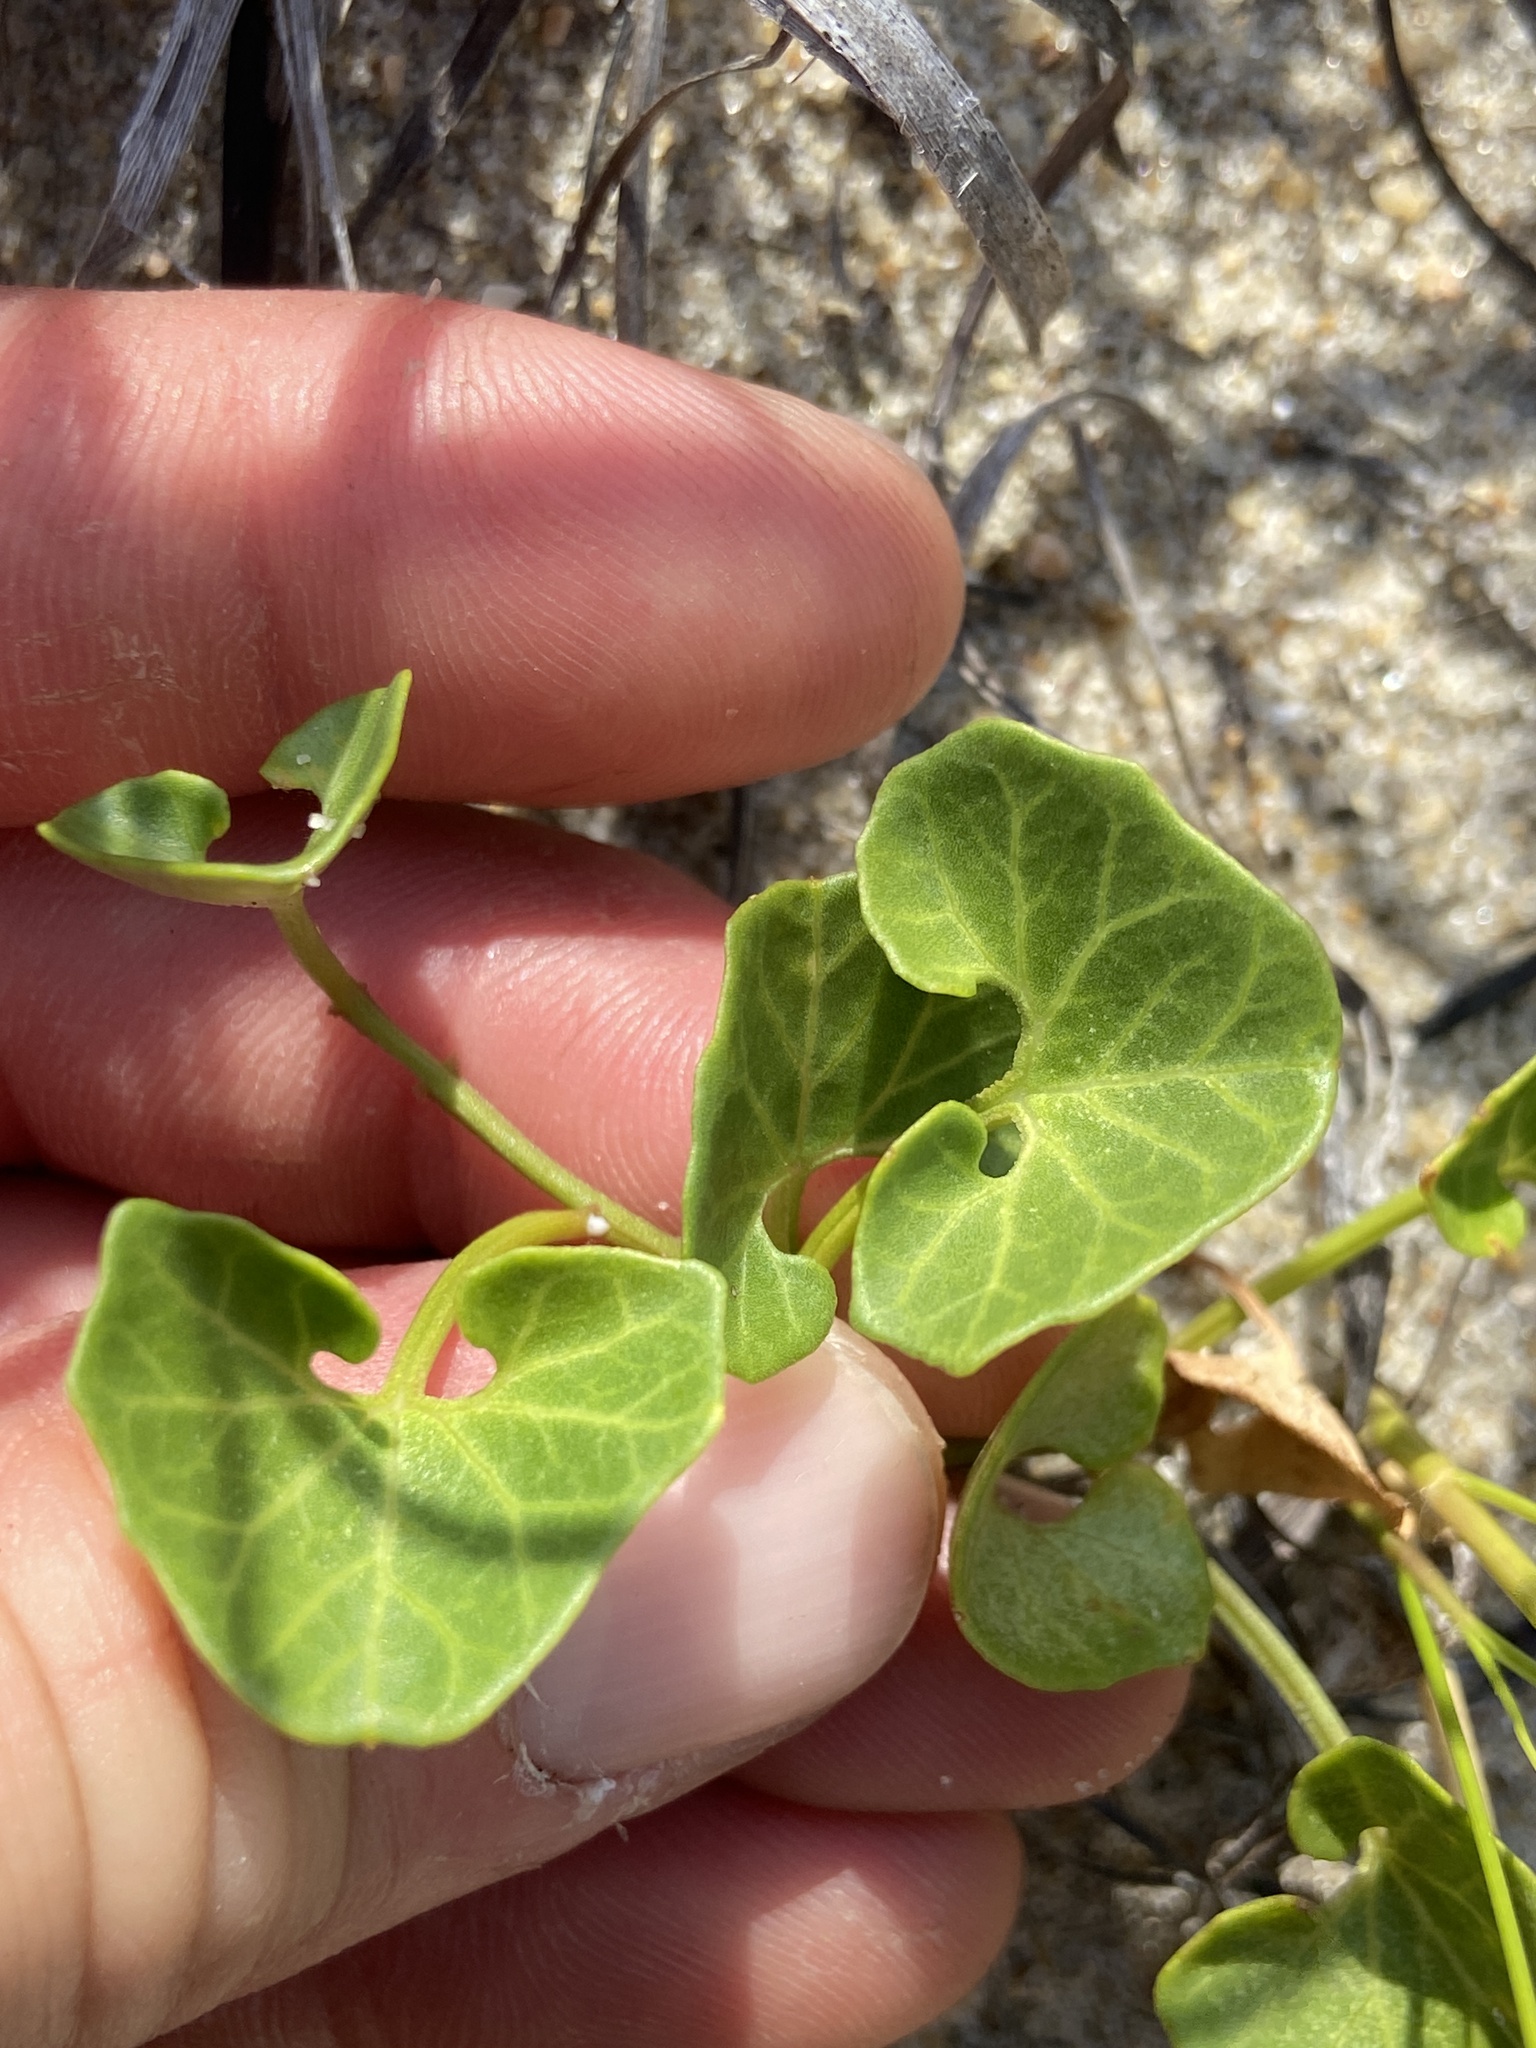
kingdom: Plantae
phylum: Tracheophyta
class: Magnoliopsida
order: Solanales
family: Convolvulaceae
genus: Calystegia
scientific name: Calystegia soldanella
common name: Sea bindweed
